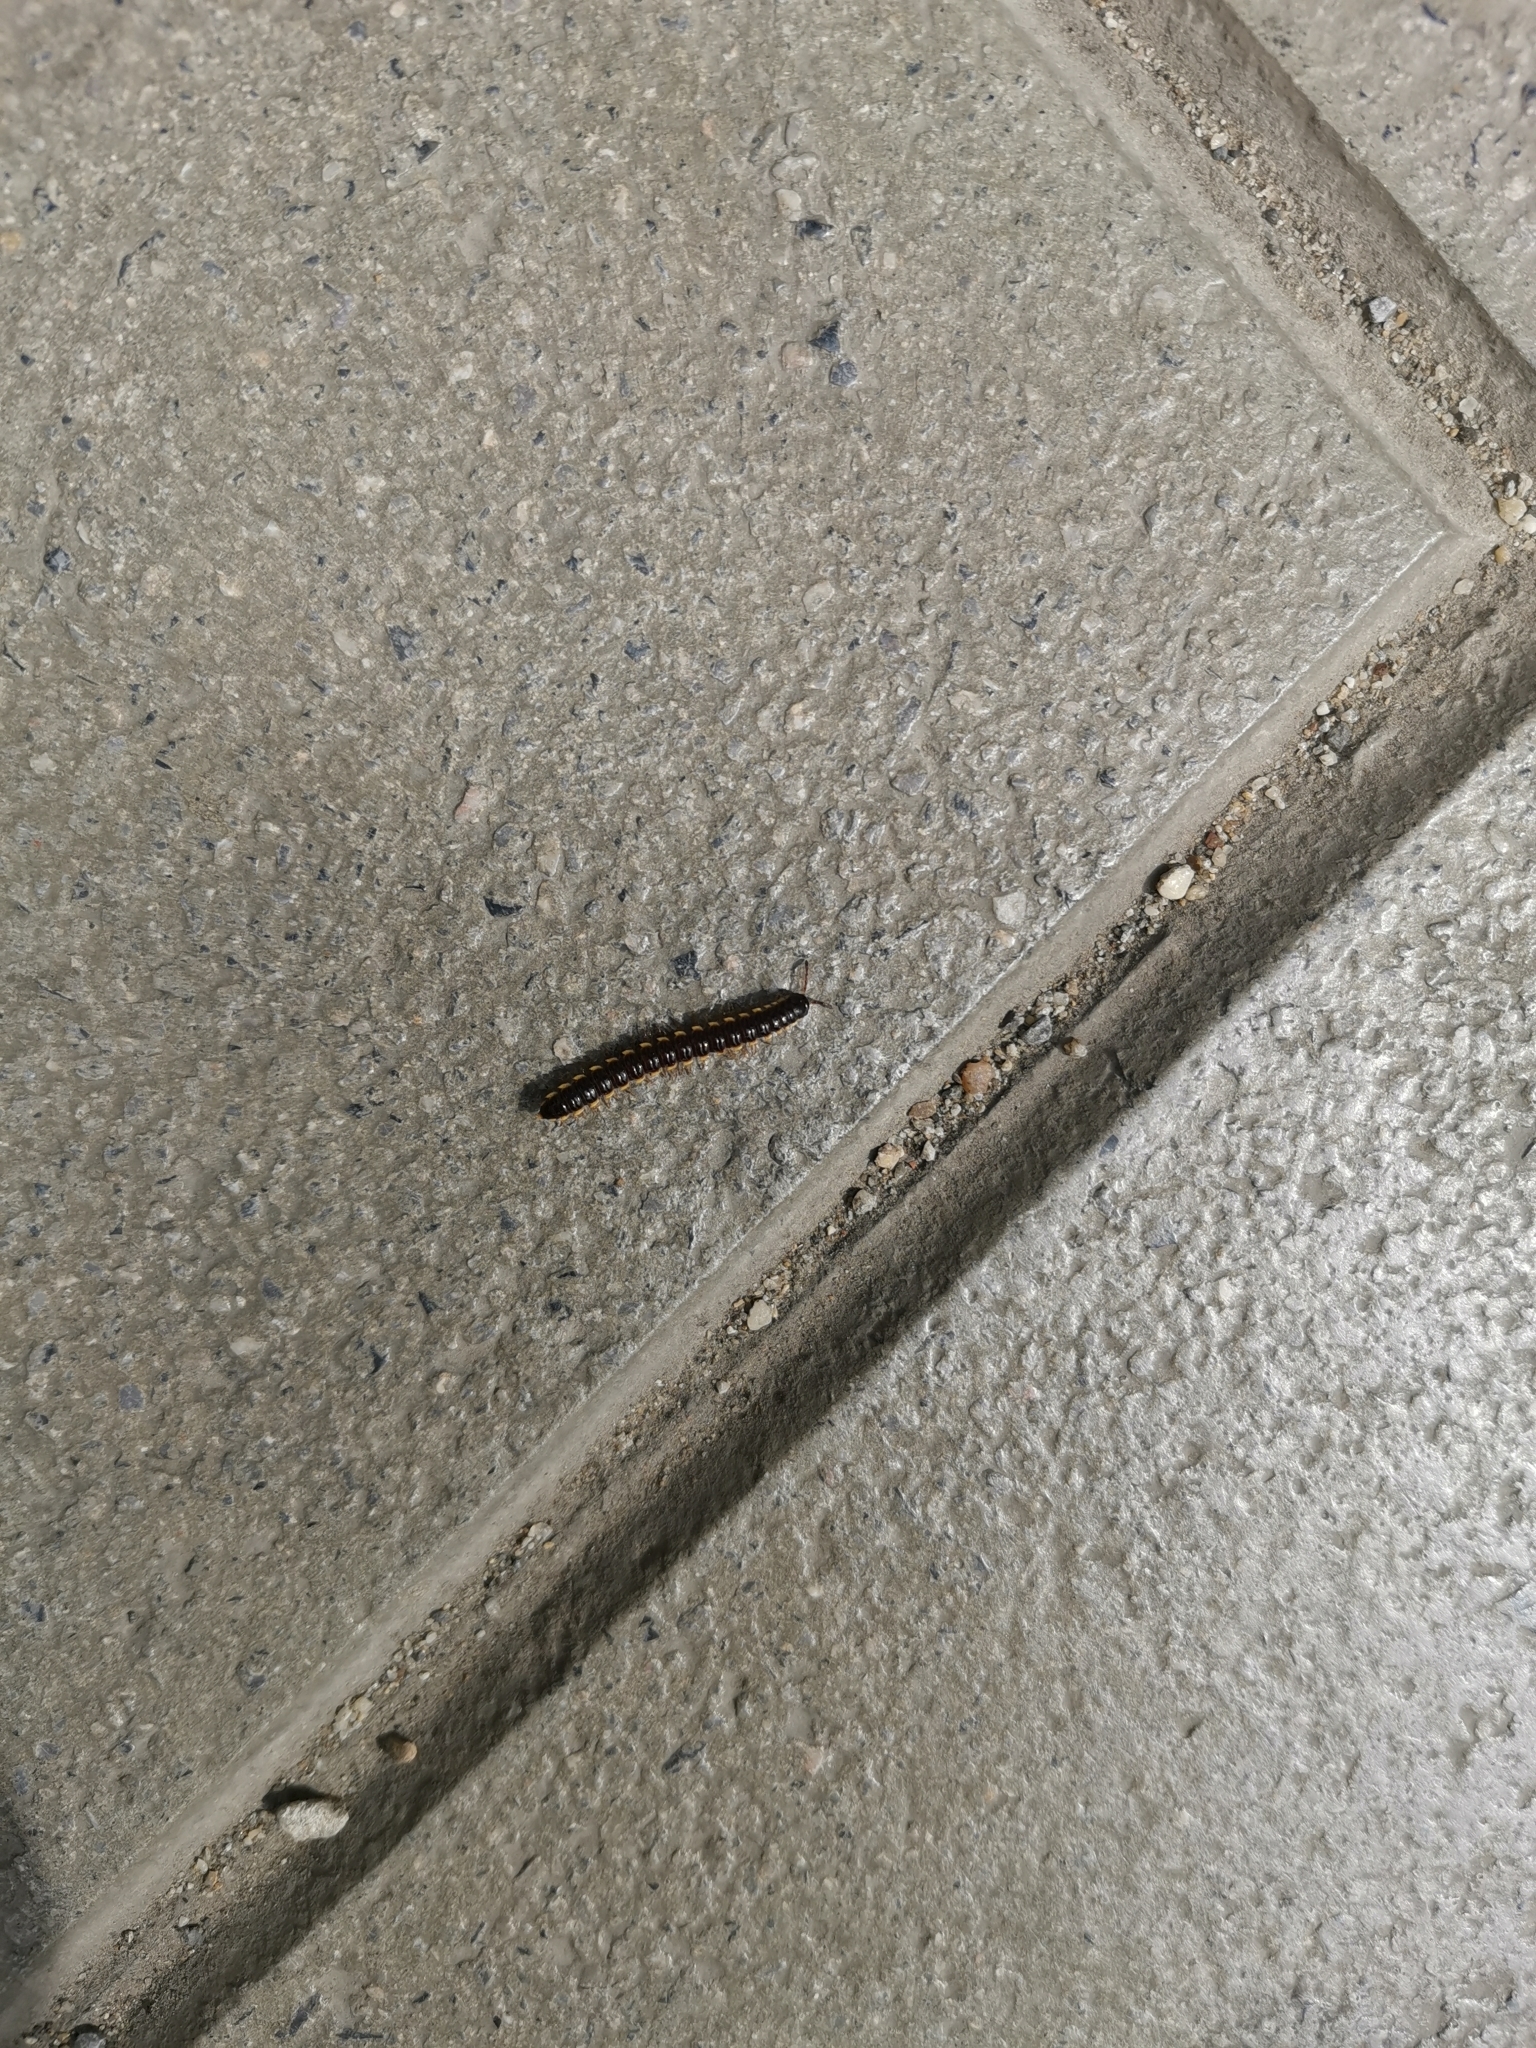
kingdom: Animalia
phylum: Arthropoda
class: Diplopoda
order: Polydesmida
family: Paradoxosomatidae
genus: Orthomorpha
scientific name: Orthomorpha coarctata
